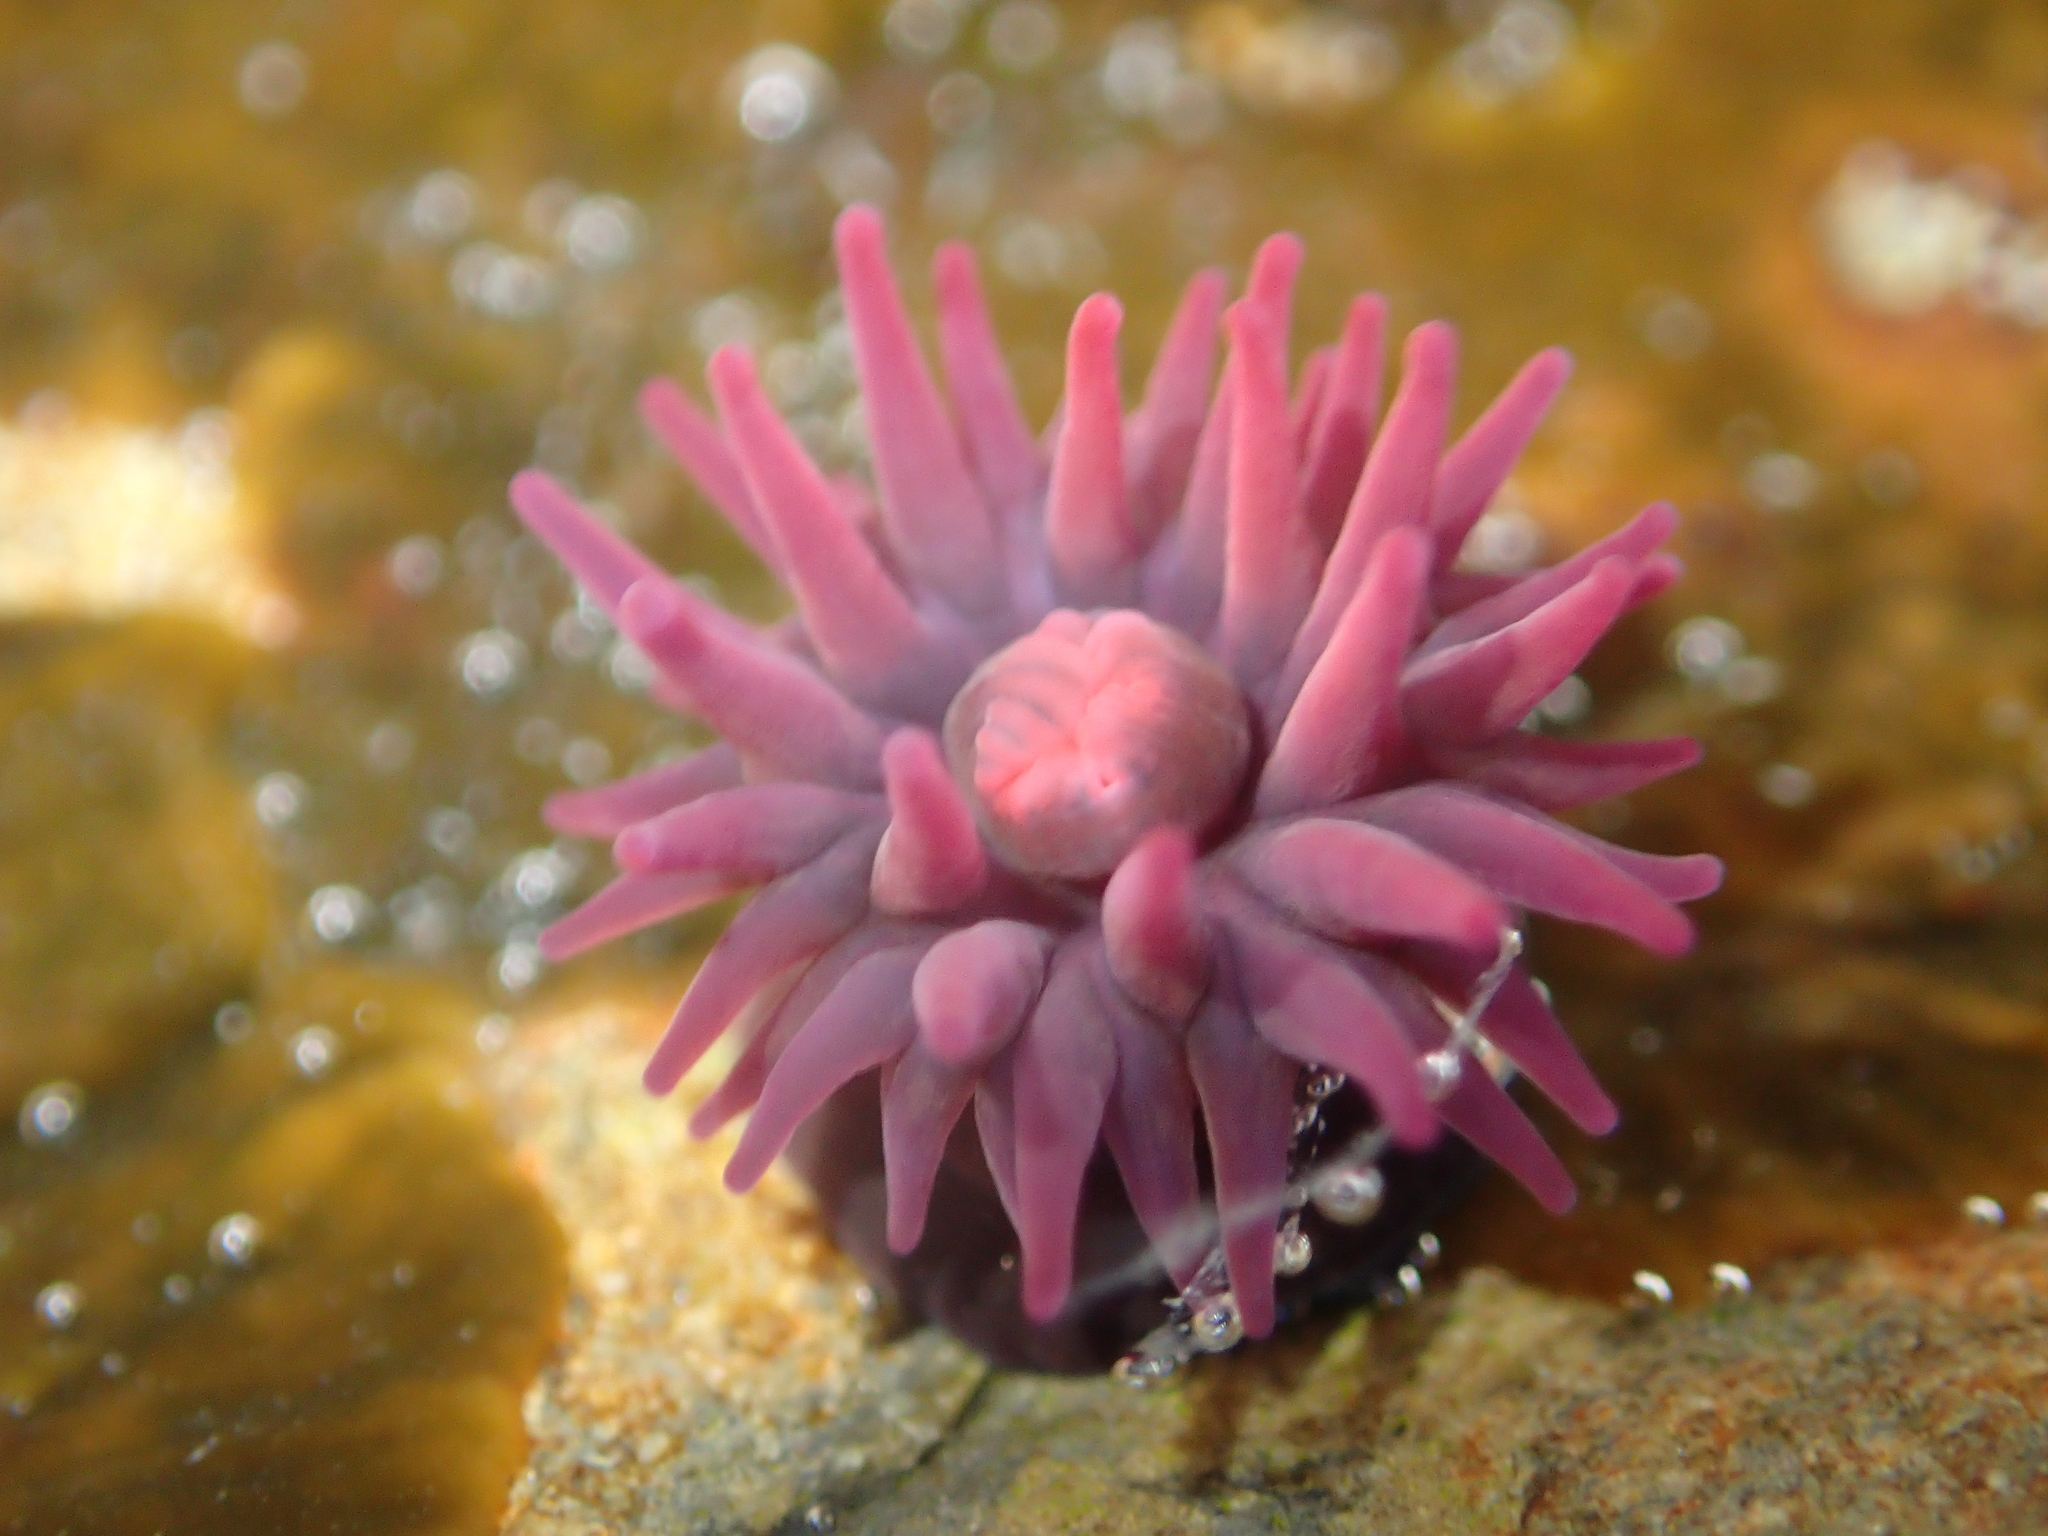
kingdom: Animalia
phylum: Cnidaria
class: Anthozoa
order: Actiniaria
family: Actiniidae
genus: Actinia
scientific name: Actinia tenebrosa
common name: Waratah anemone
